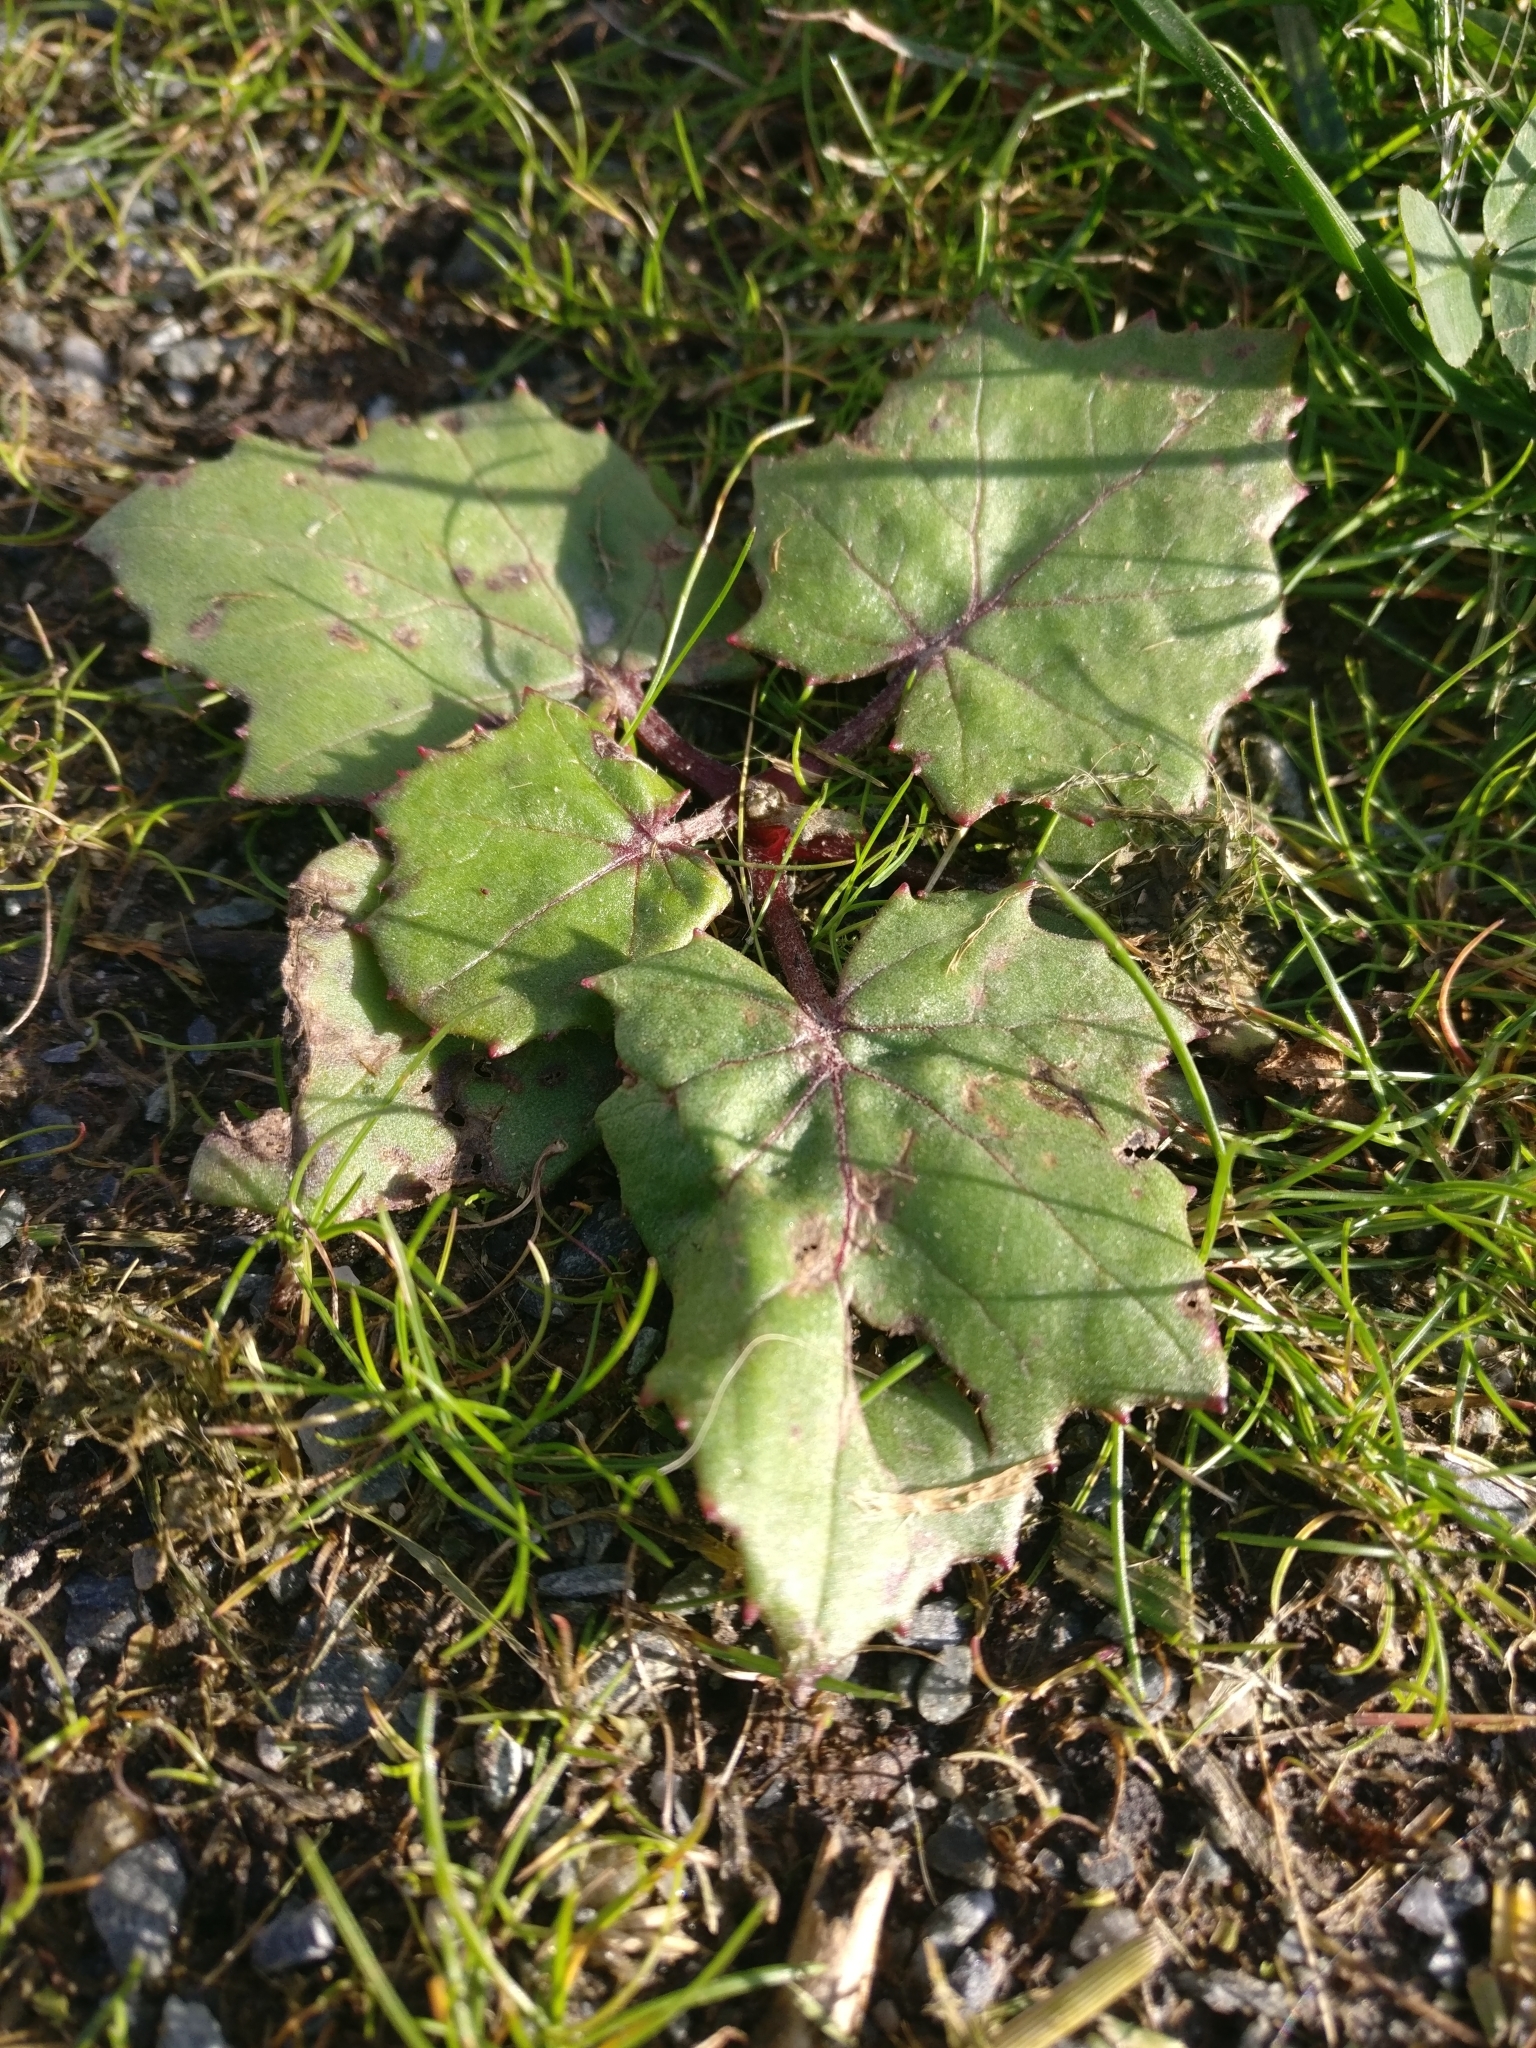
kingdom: Plantae
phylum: Tracheophyta
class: Magnoliopsida
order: Asterales
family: Asteraceae
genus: Tussilago
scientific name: Tussilago farfara
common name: Coltsfoot
